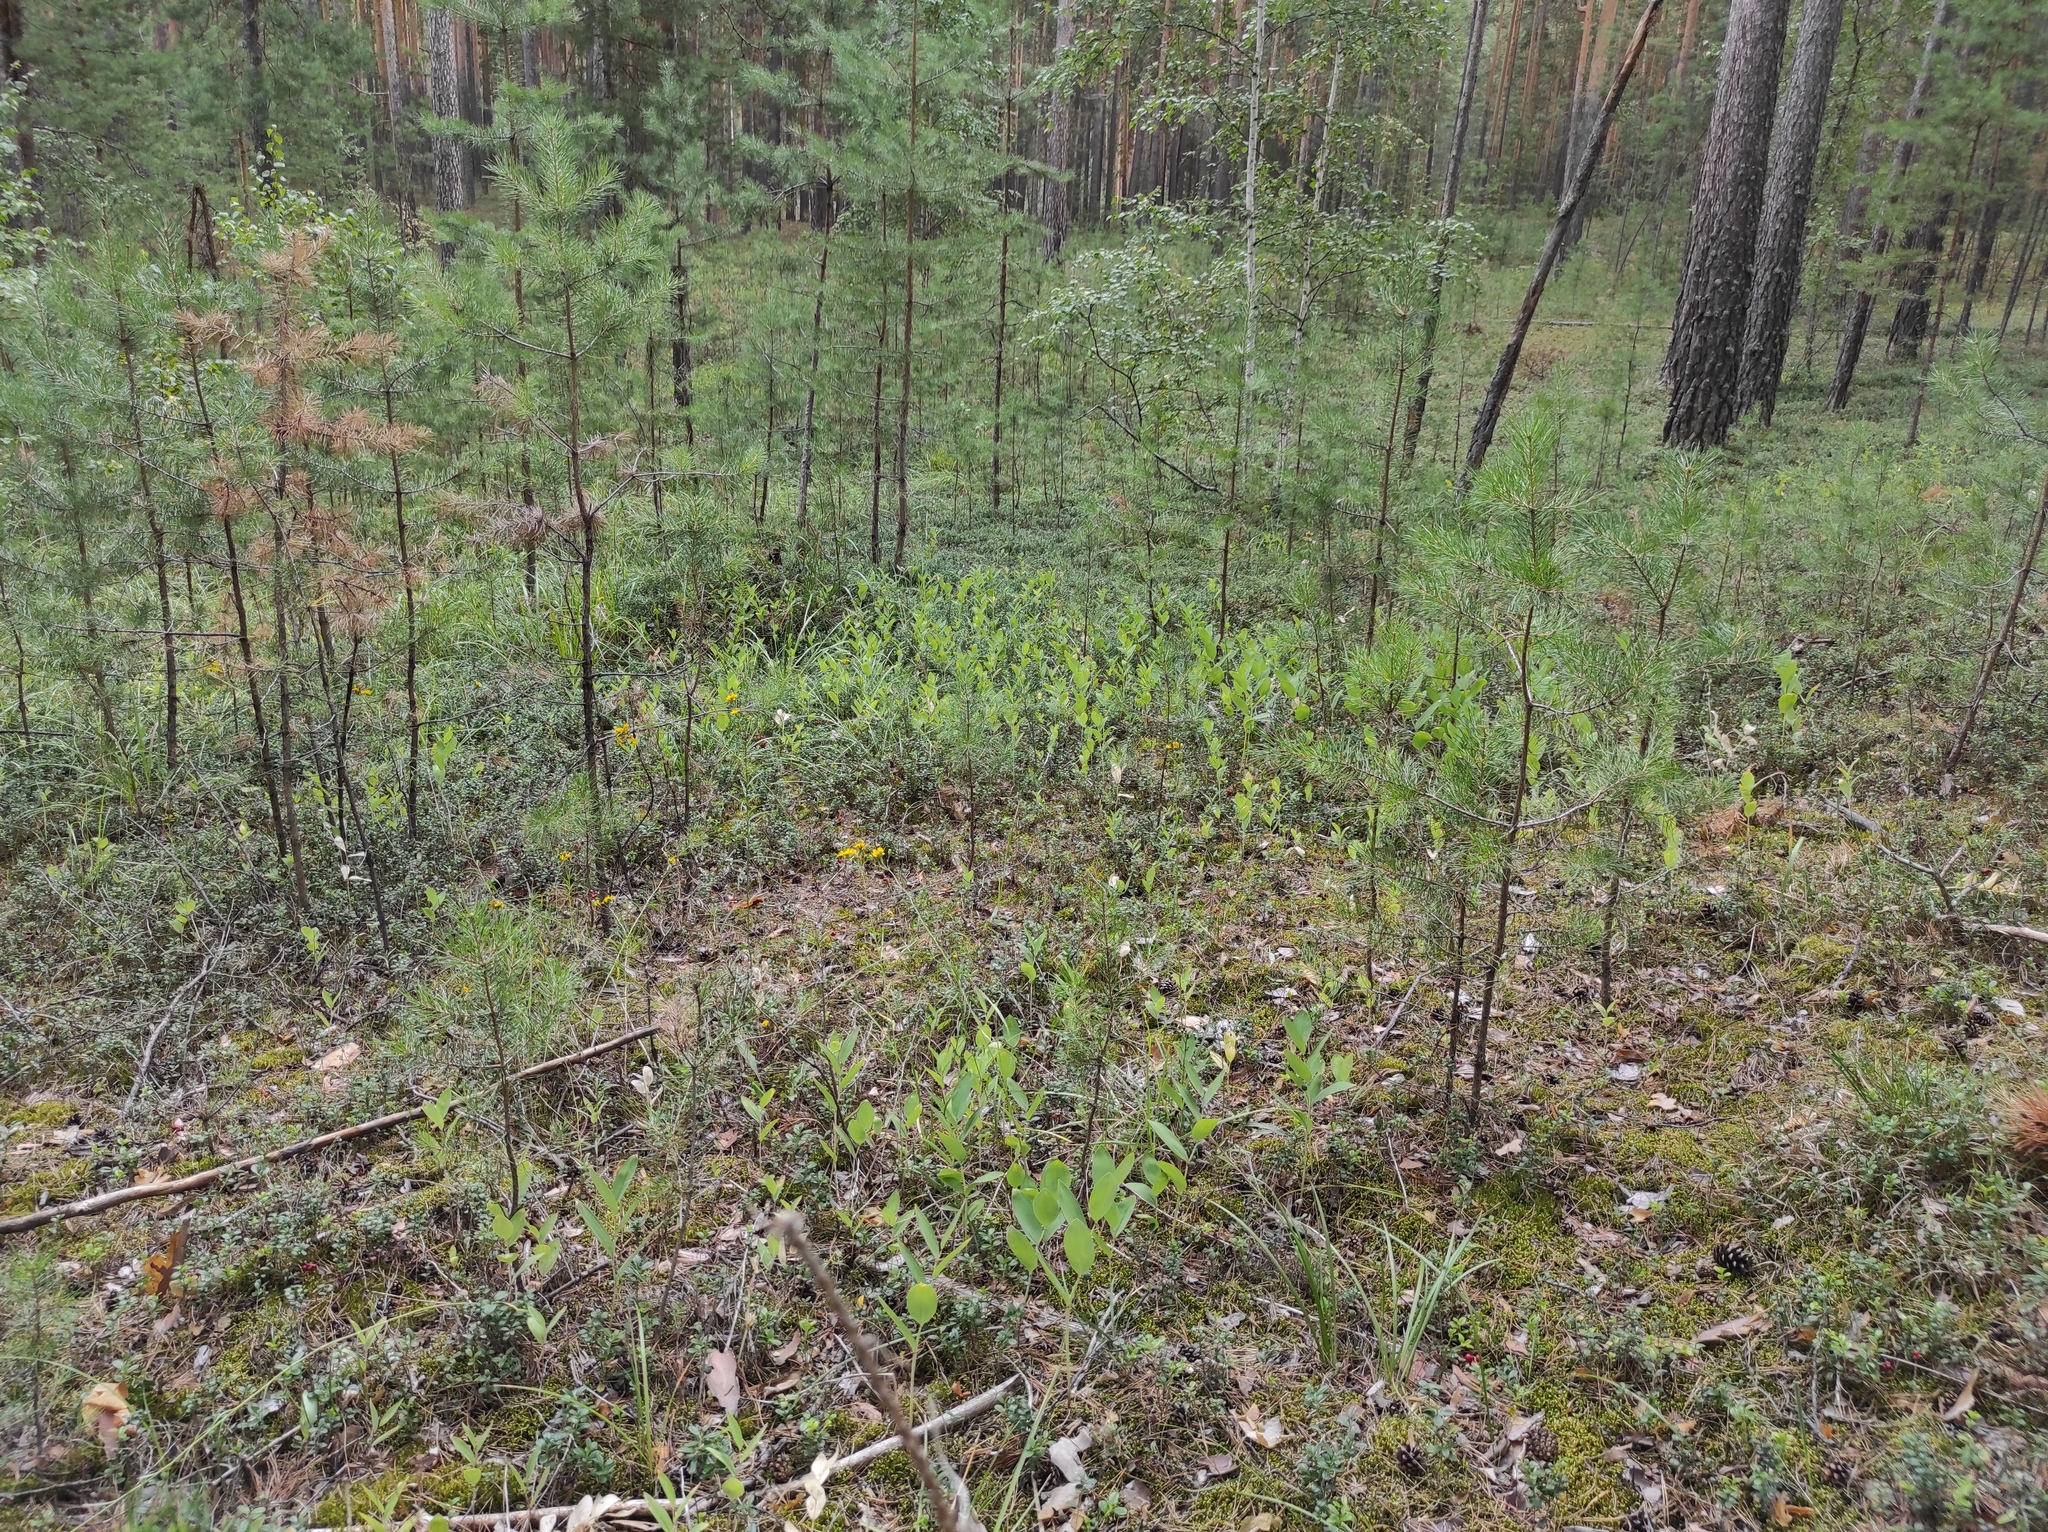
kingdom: Plantae
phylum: Tracheophyta
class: Pinopsida
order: Pinales
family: Pinaceae
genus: Pinus
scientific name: Pinus sylvestris
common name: Scots pine
